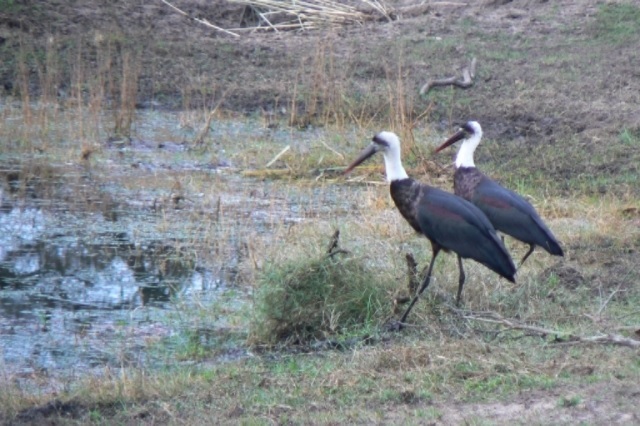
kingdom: Animalia
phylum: Chordata
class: Aves
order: Ciconiiformes
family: Ciconiidae
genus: Ciconia
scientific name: Ciconia microscelis
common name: African woollyneck
